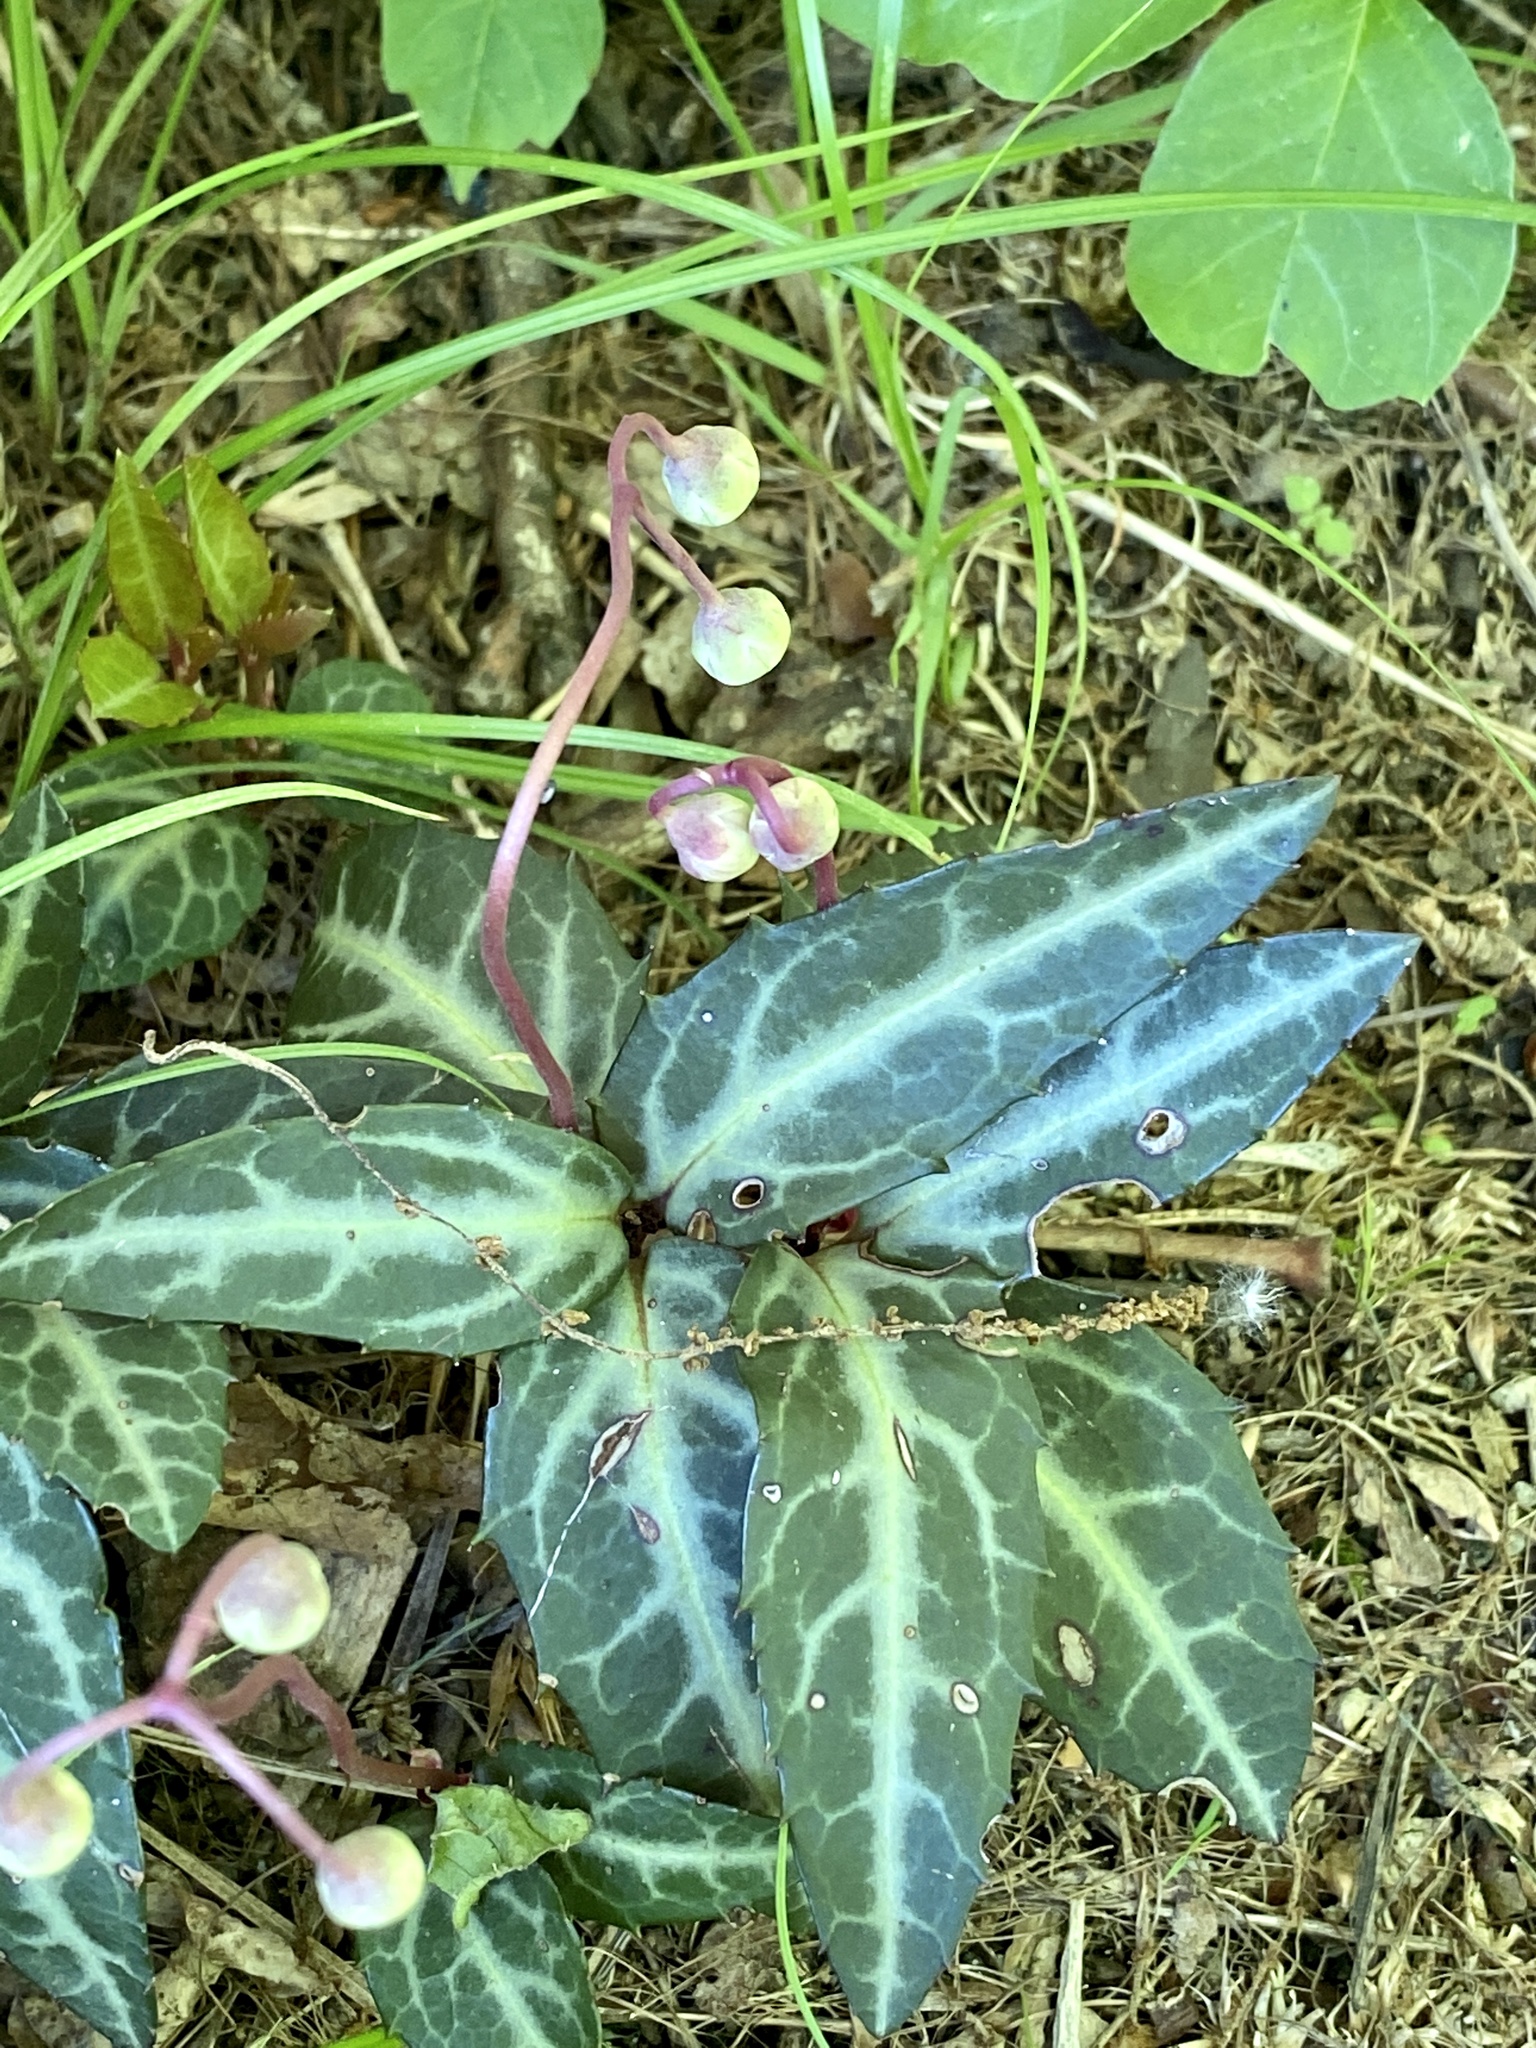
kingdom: Plantae
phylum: Tracheophyta
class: Magnoliopsida
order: Ericales
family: Ericaceae
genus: Chimaphila
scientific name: Chimaphila maculata
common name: Spotted pipsissewa
